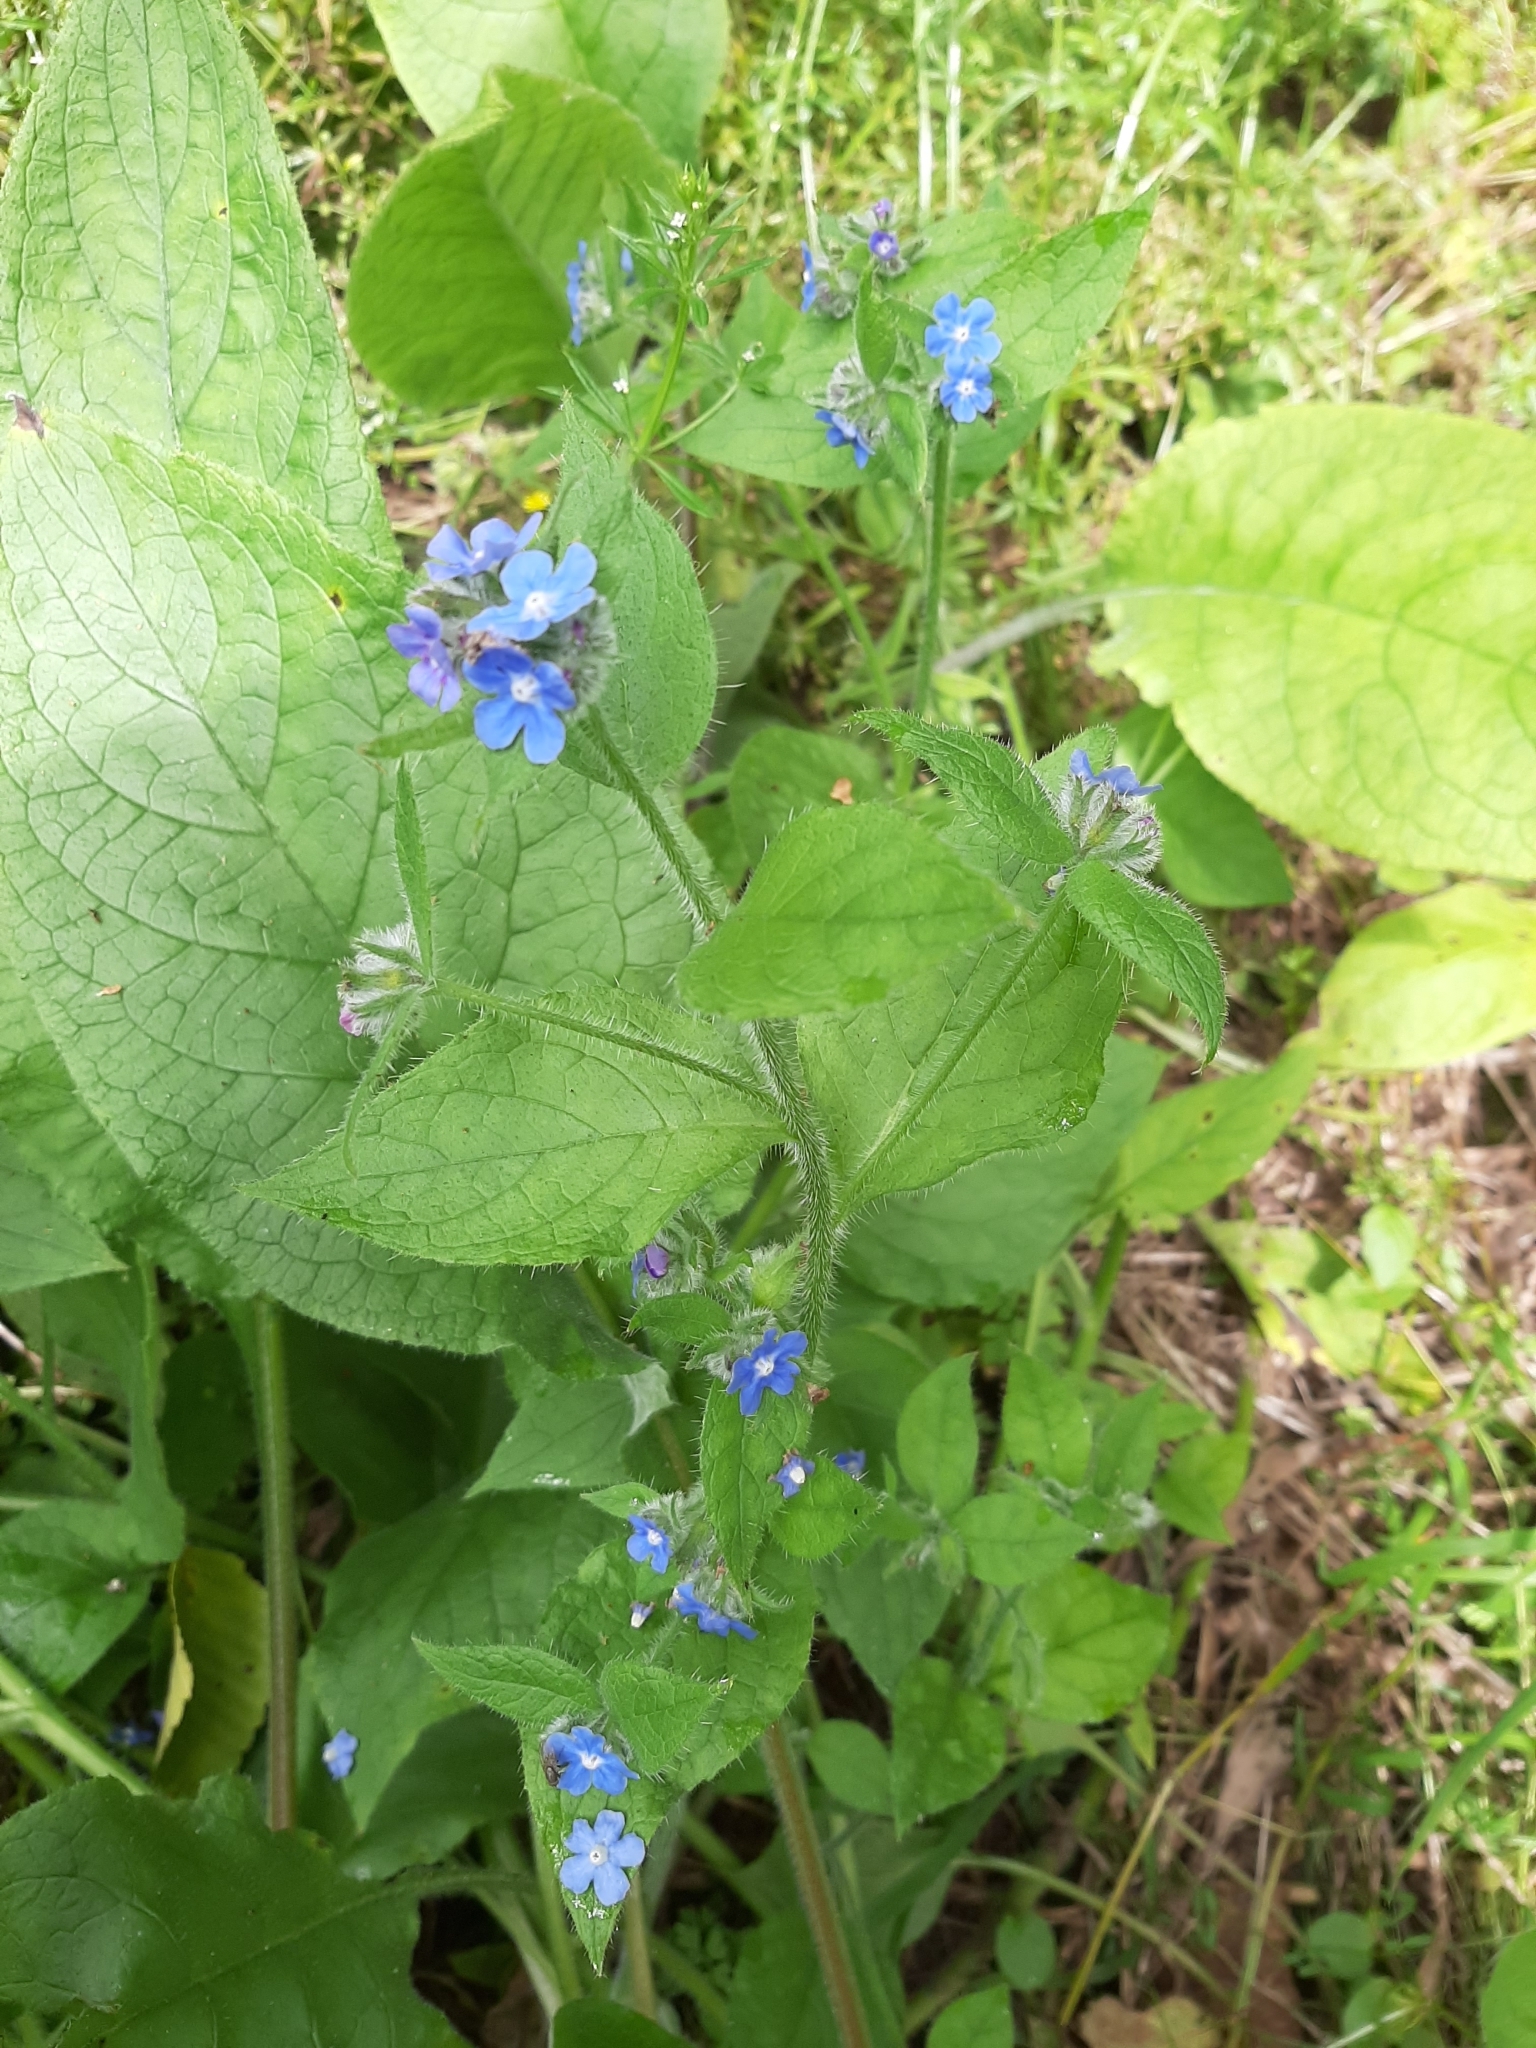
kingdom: Plantae
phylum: Tracheophyta
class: Magnoliopsida
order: Boraginales
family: Boraginaceae
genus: Pentaglottis
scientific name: Pentaglottis sempervirens
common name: Green alkanet
